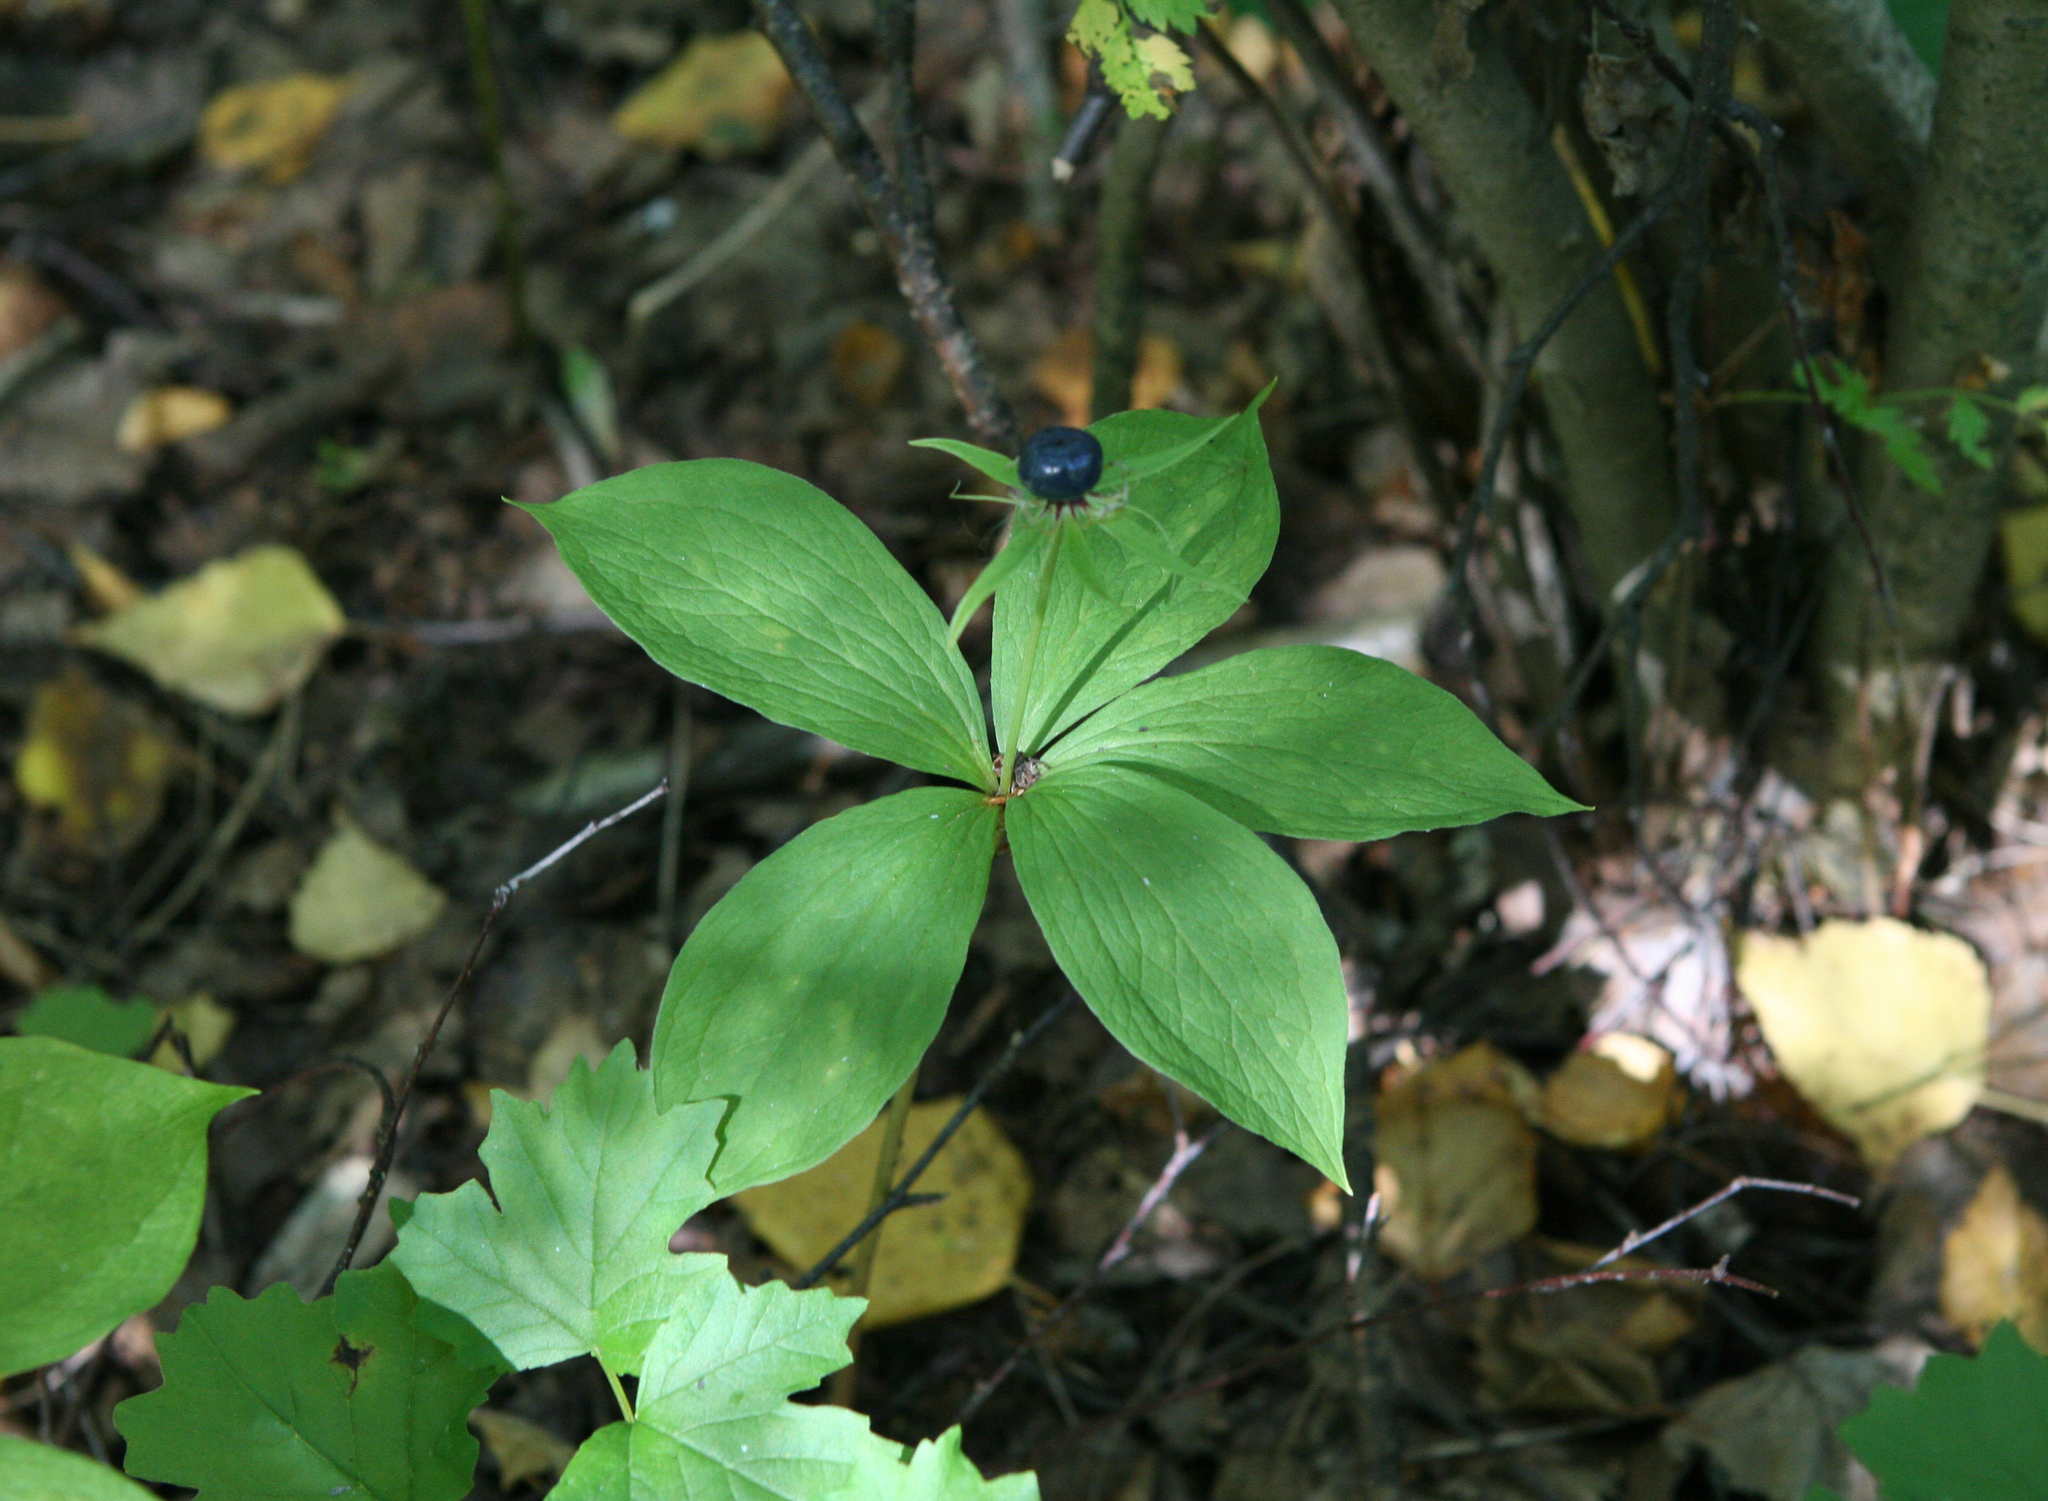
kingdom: Plantae
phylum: Tracheophyta
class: Liliopsida
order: Liliales
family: Melanthiaceae
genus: Paris
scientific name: Paris quadrifolia
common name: Herb-paris
